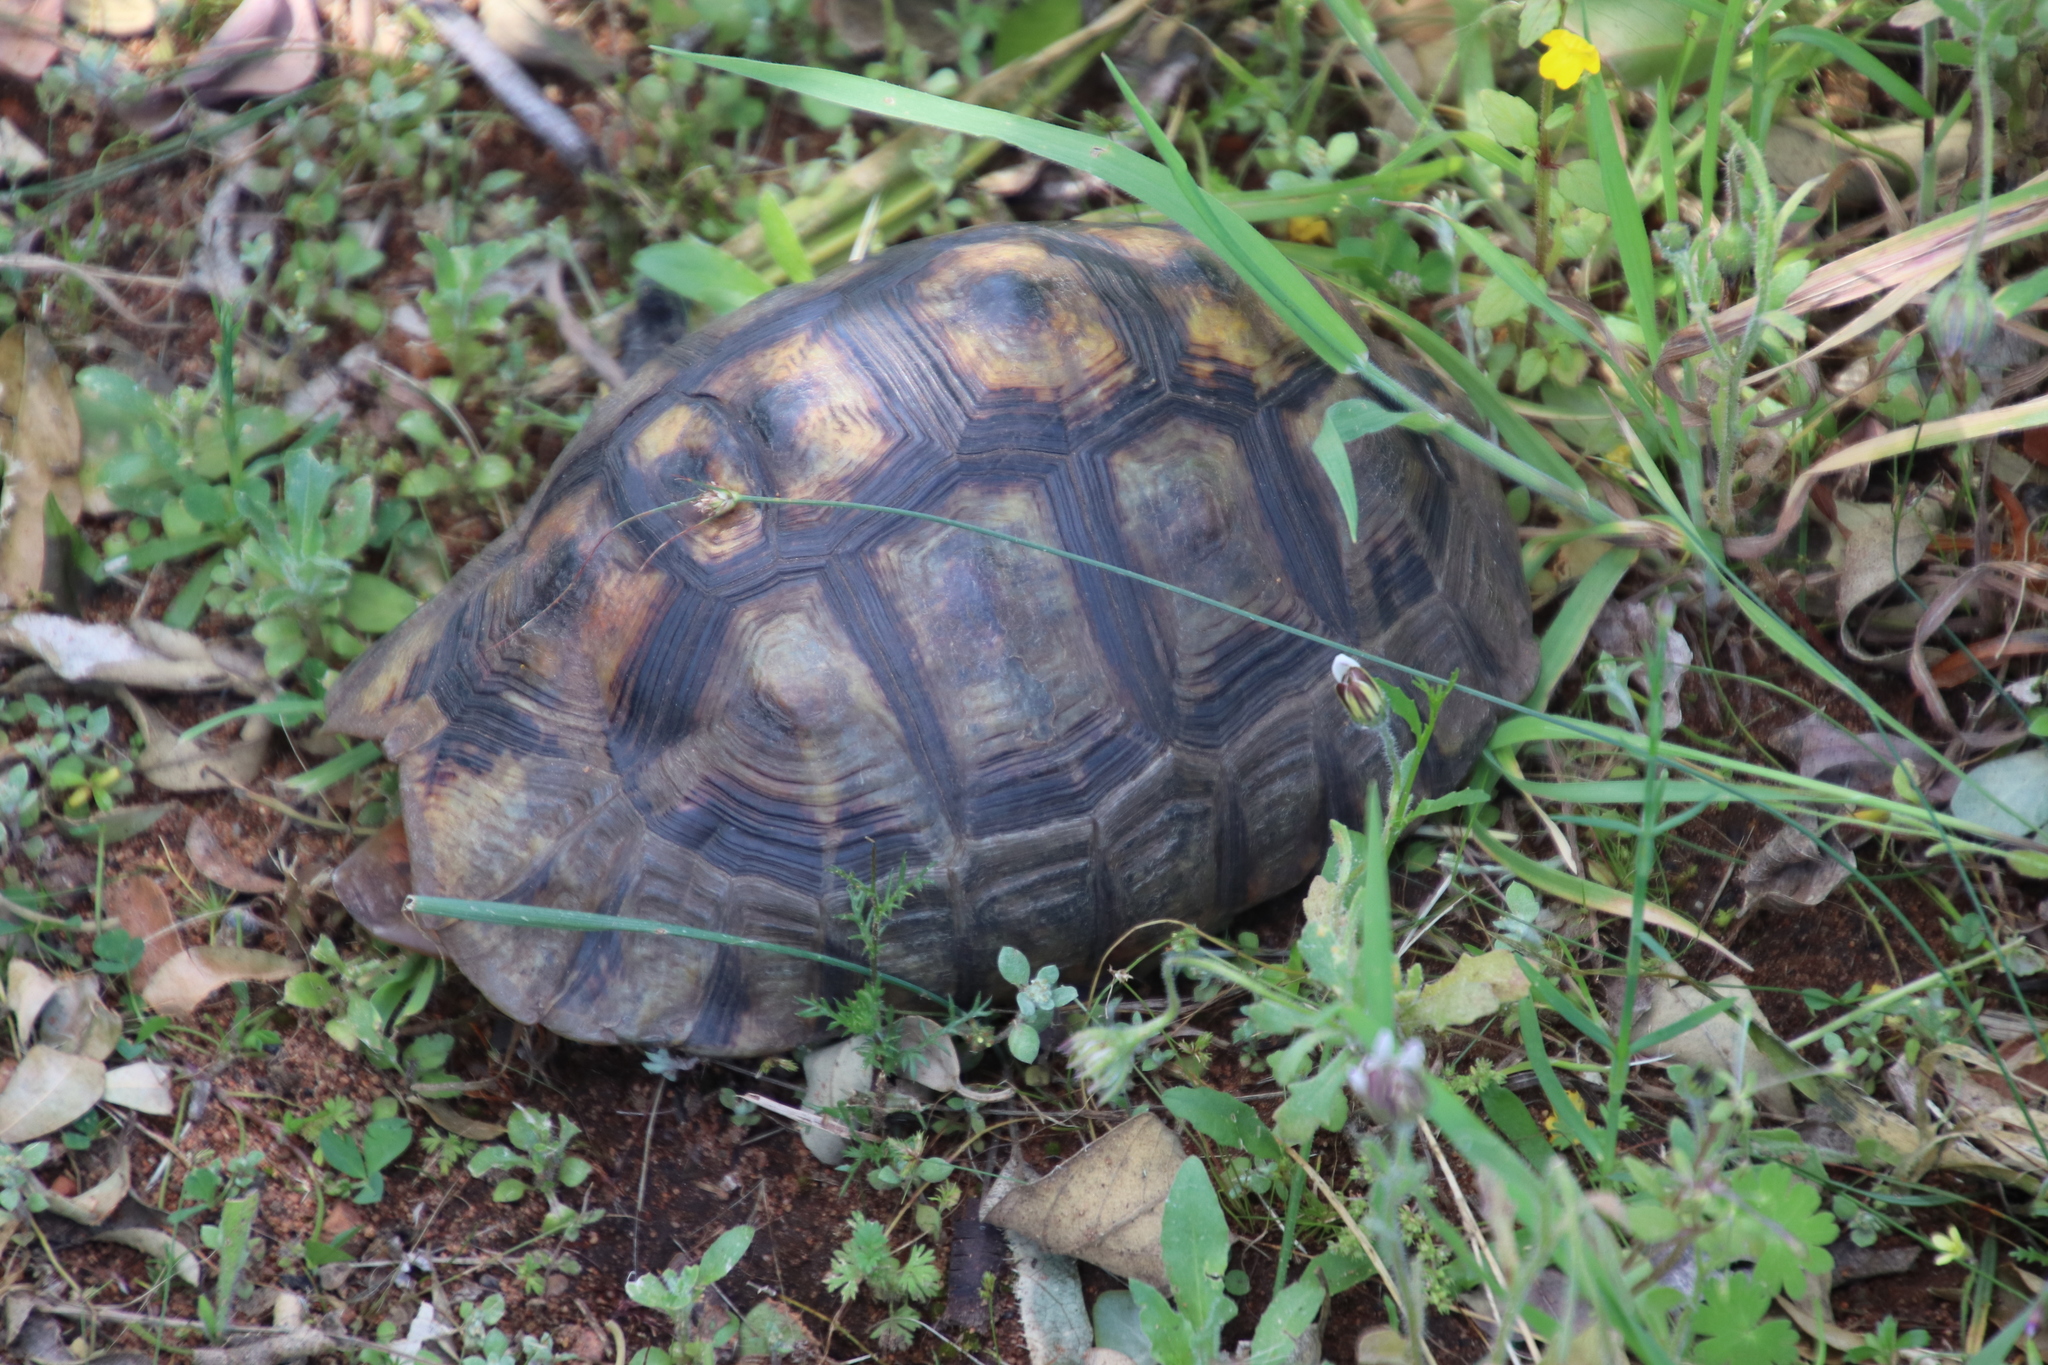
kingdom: Animalia
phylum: Chordata
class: Testudines
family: Testudinidae
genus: Chersina
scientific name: Chersina angulata
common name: South african bowsprit tortoise
